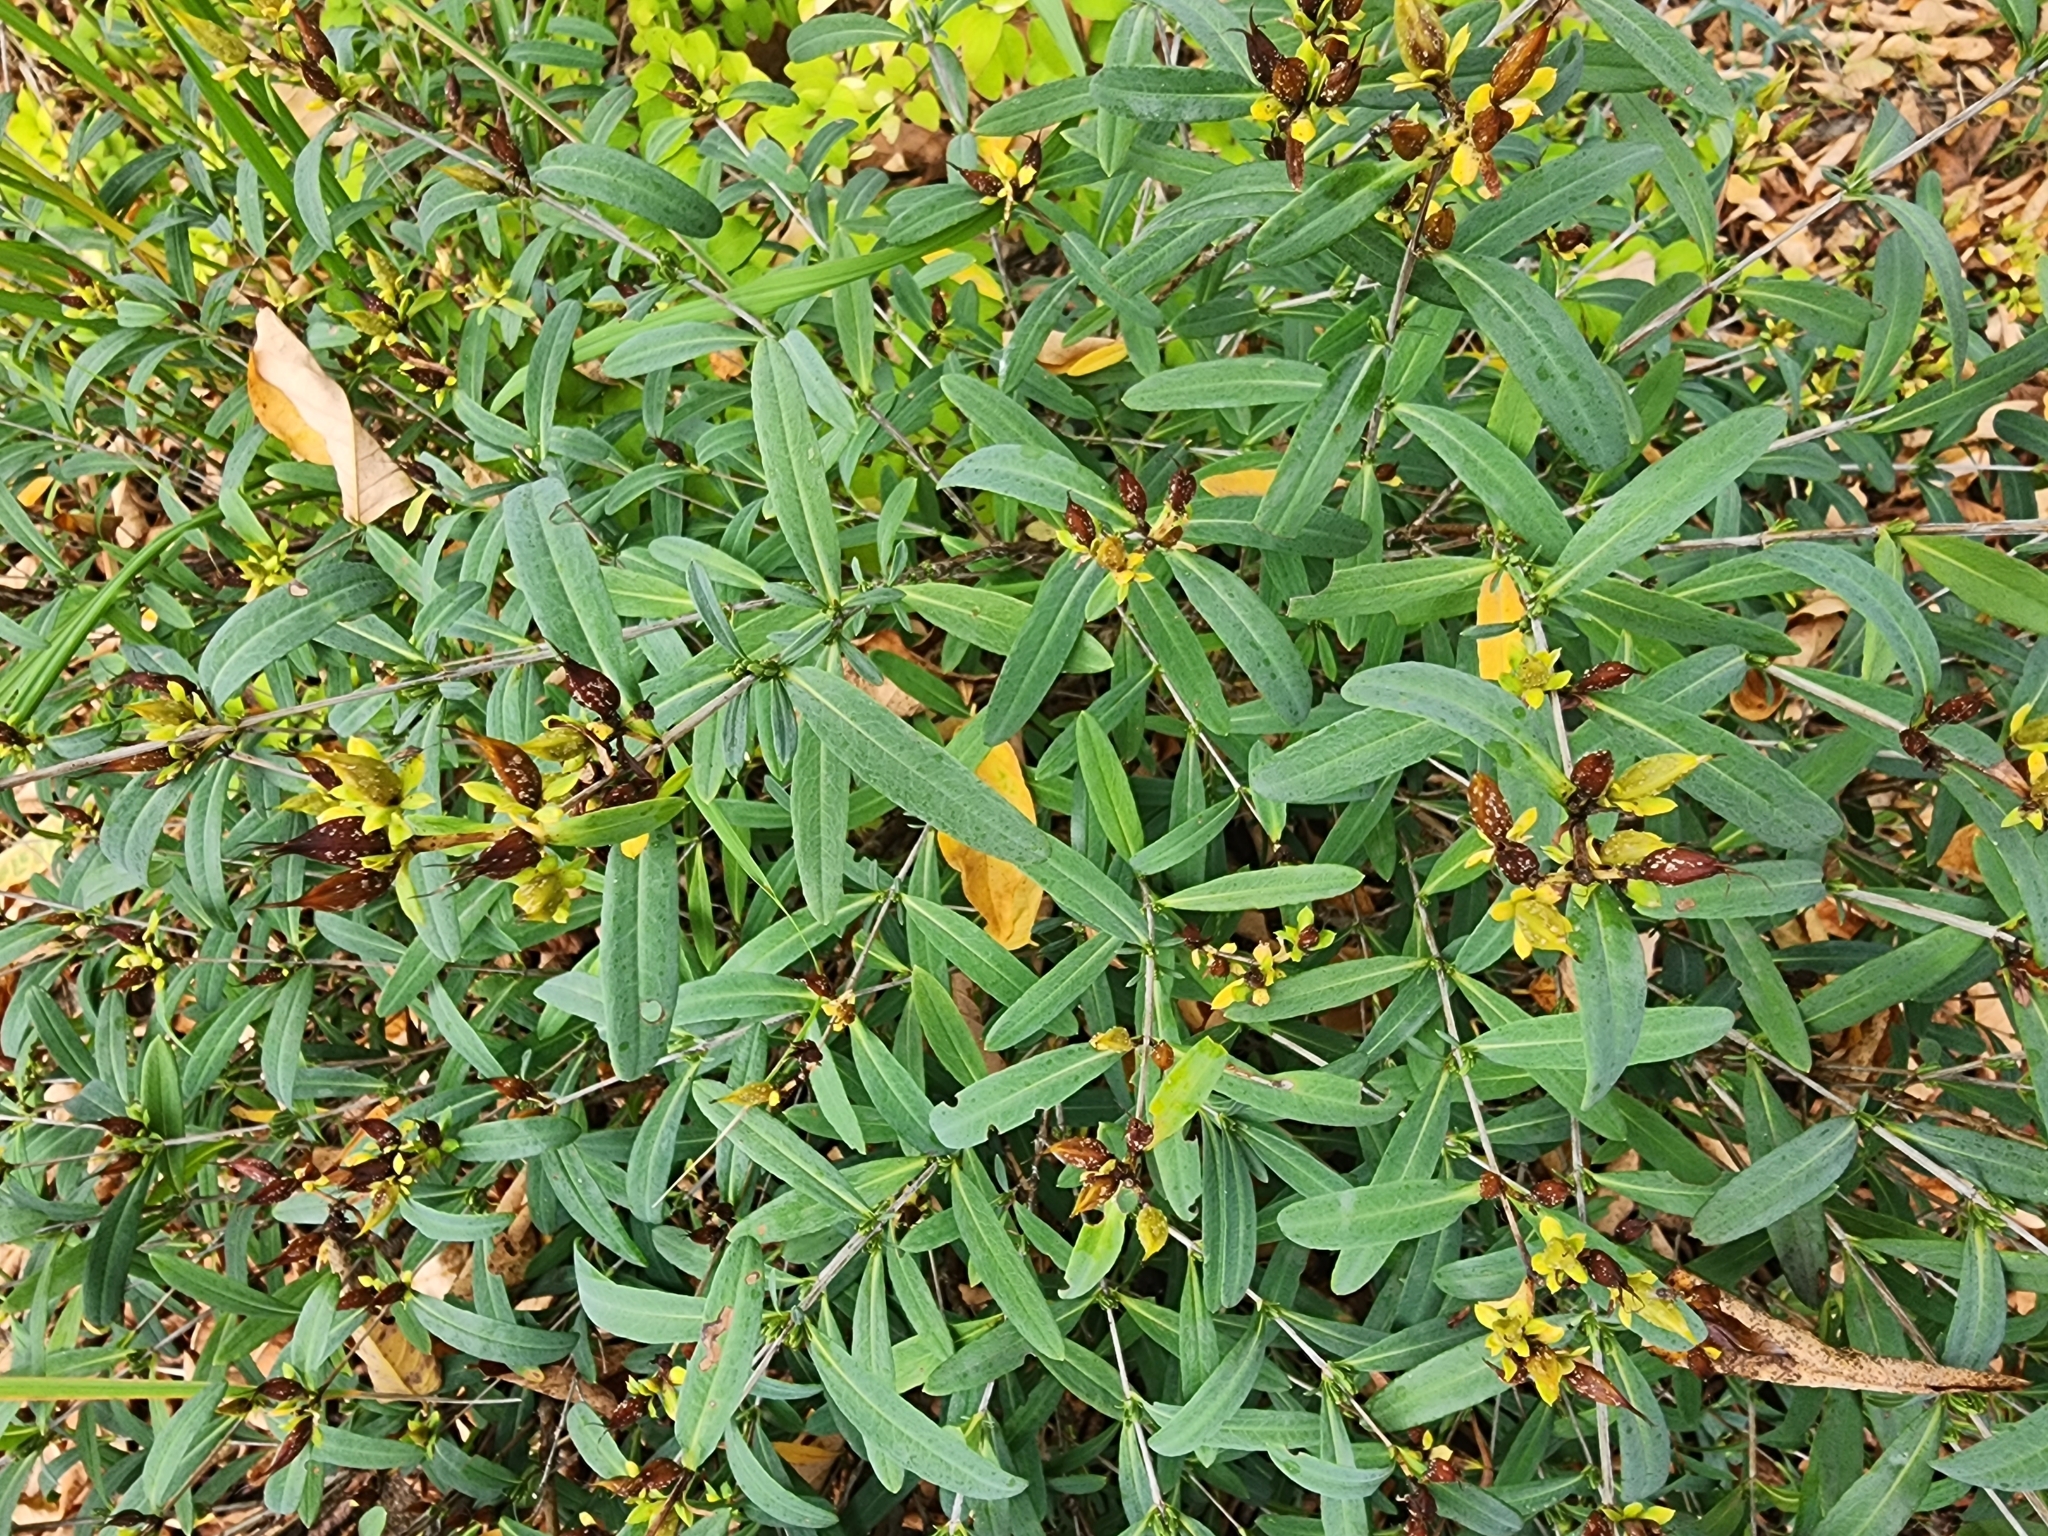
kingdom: Plantae
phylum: Tracheophyta
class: Magnoliopsida
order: Malpighiales
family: Hypericaceae
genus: Hypericum
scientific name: Hypericum prolificum
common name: Shrubby st. john's-wort
